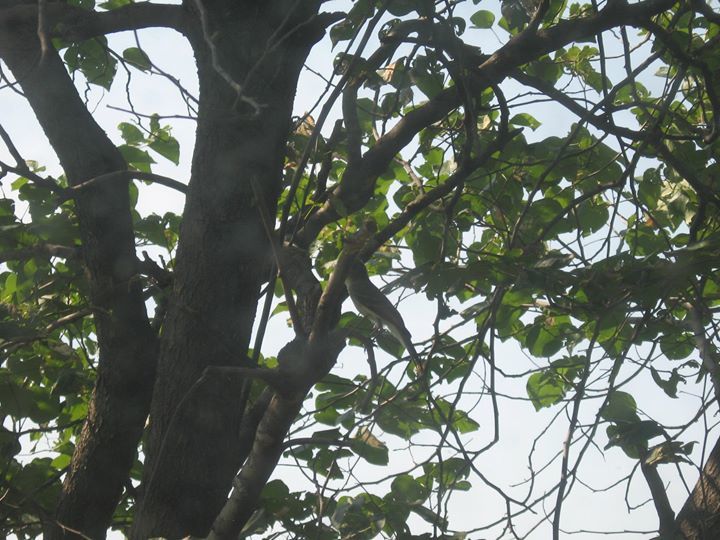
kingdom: Animalia
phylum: Chordata
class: Aves
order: Passeriformes
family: Tyrannidae
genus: Sayornis
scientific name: Sayornis phoebe
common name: Eastern phoebe
